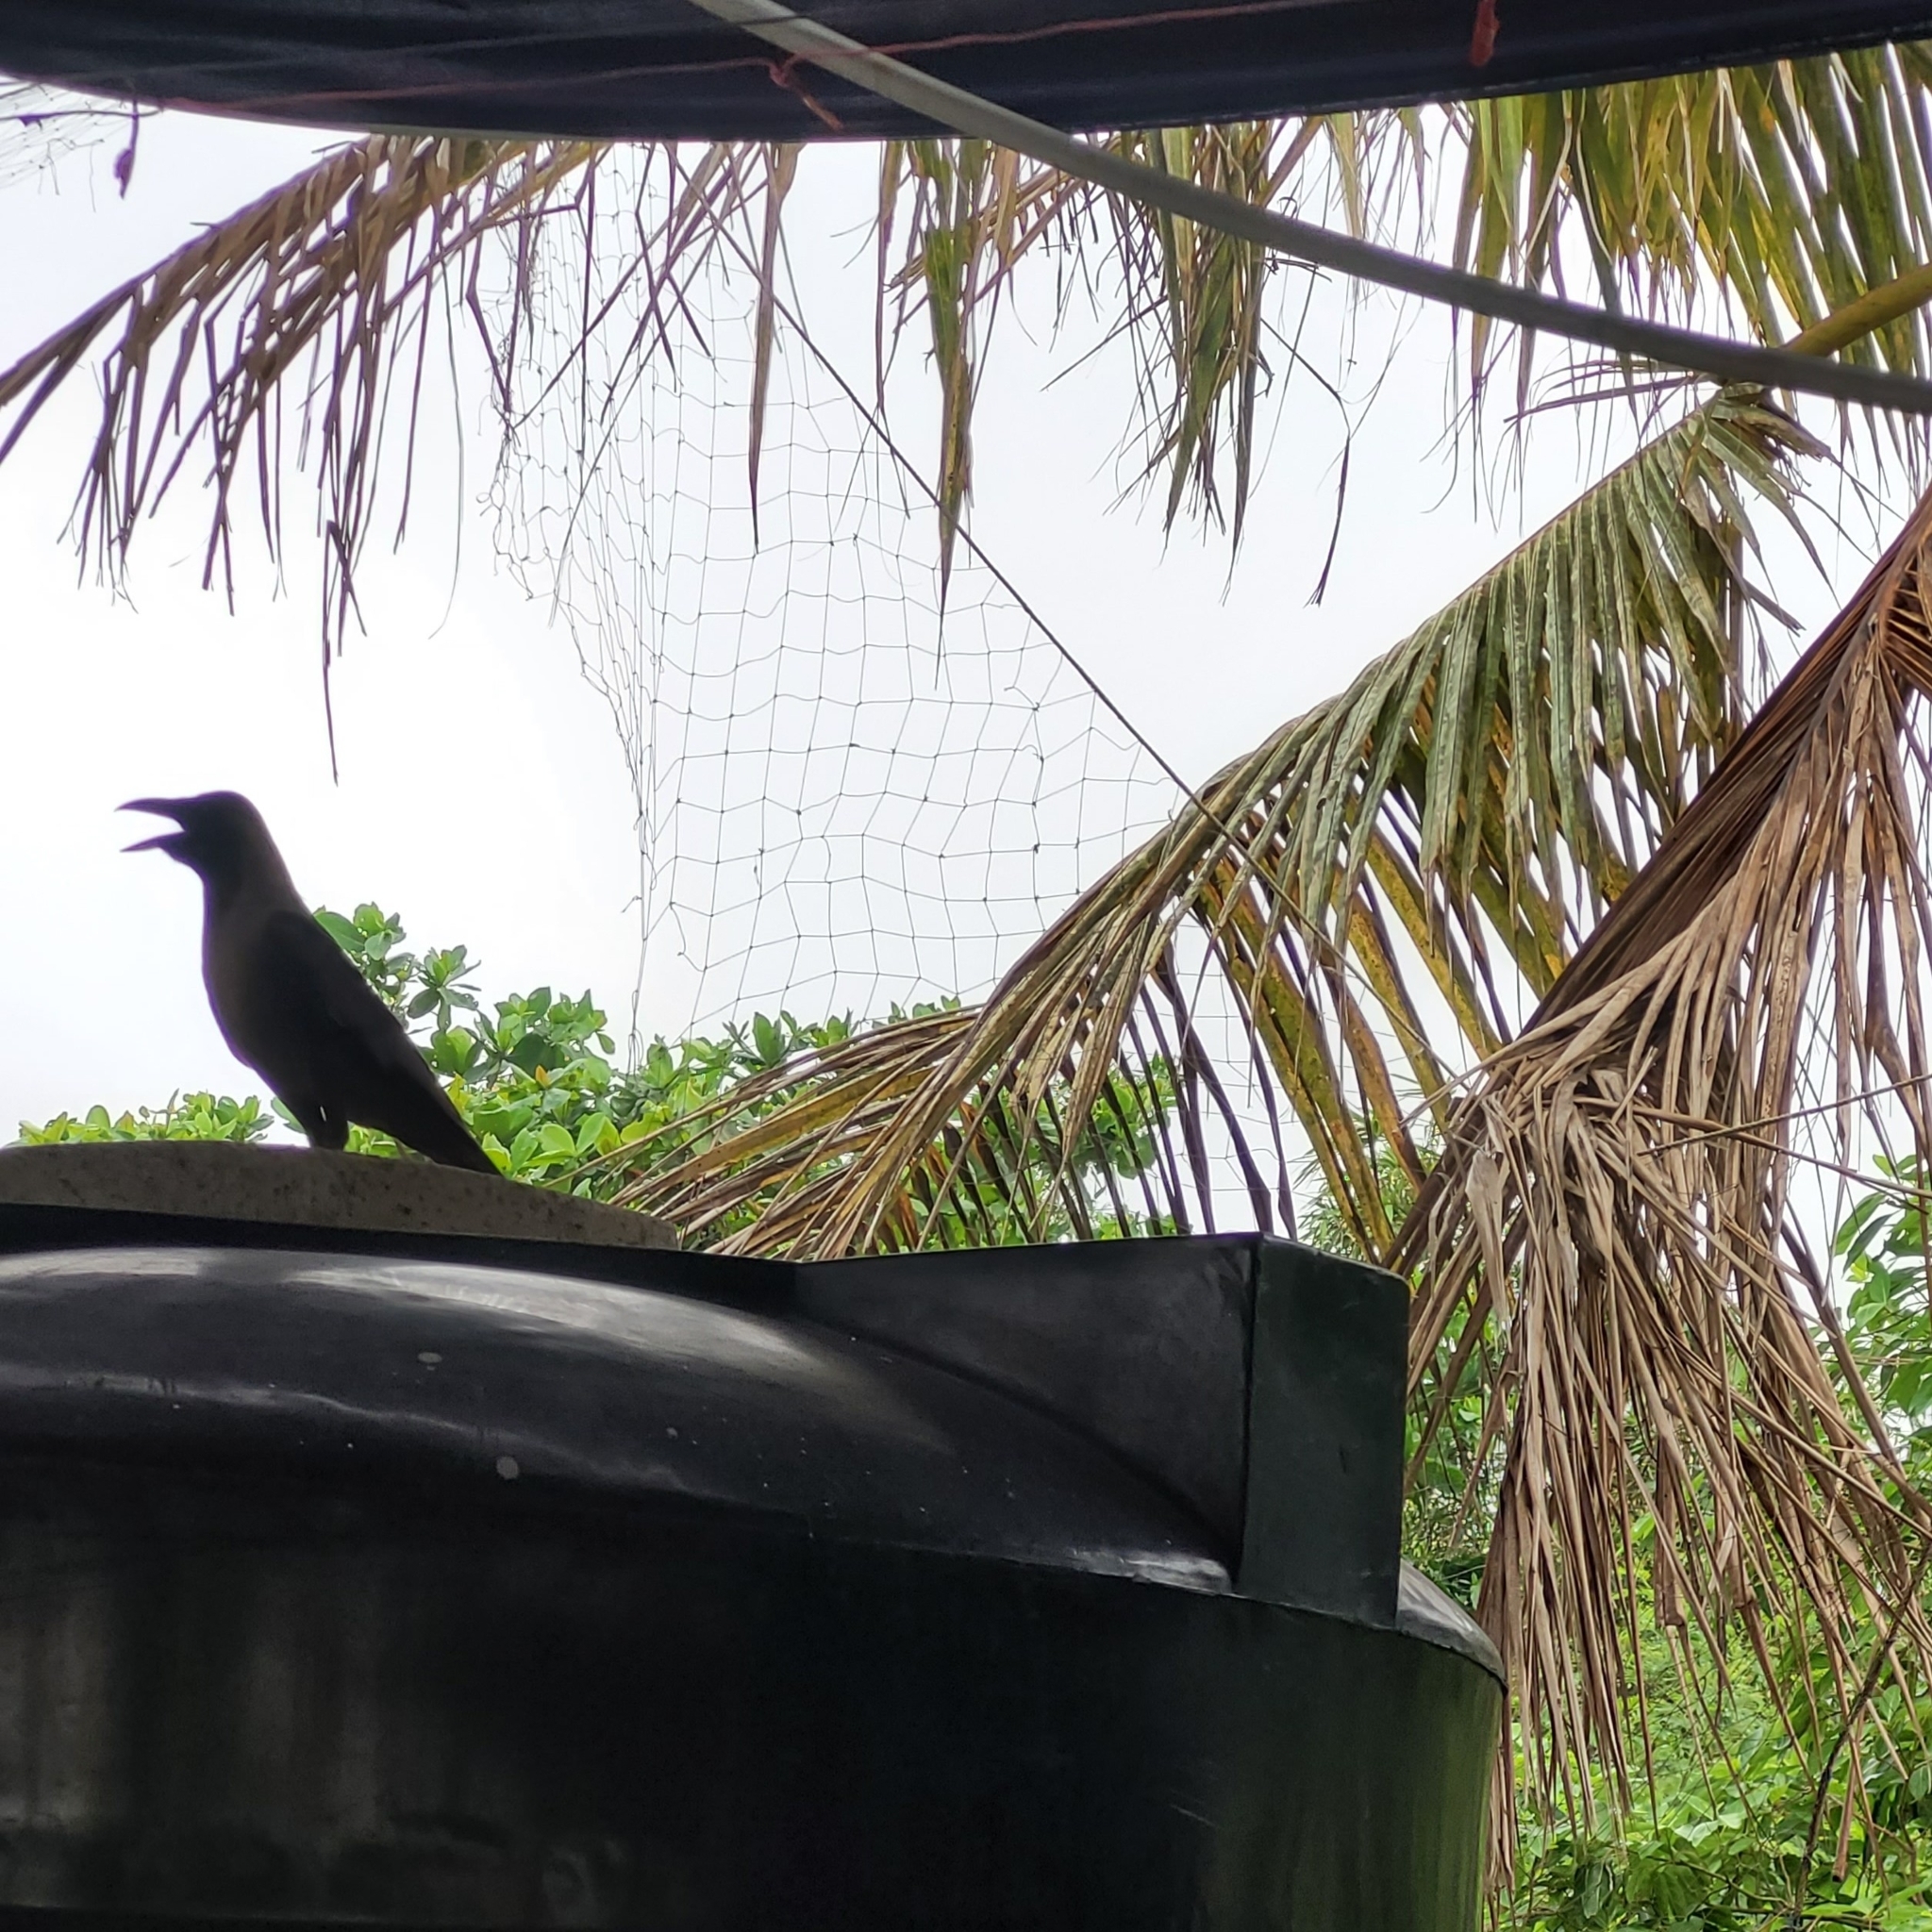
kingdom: Animalia
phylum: Chordata
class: Aves
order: Passeriformes
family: Corvidae
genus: Corvus
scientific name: Corvus splendens
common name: House crow
